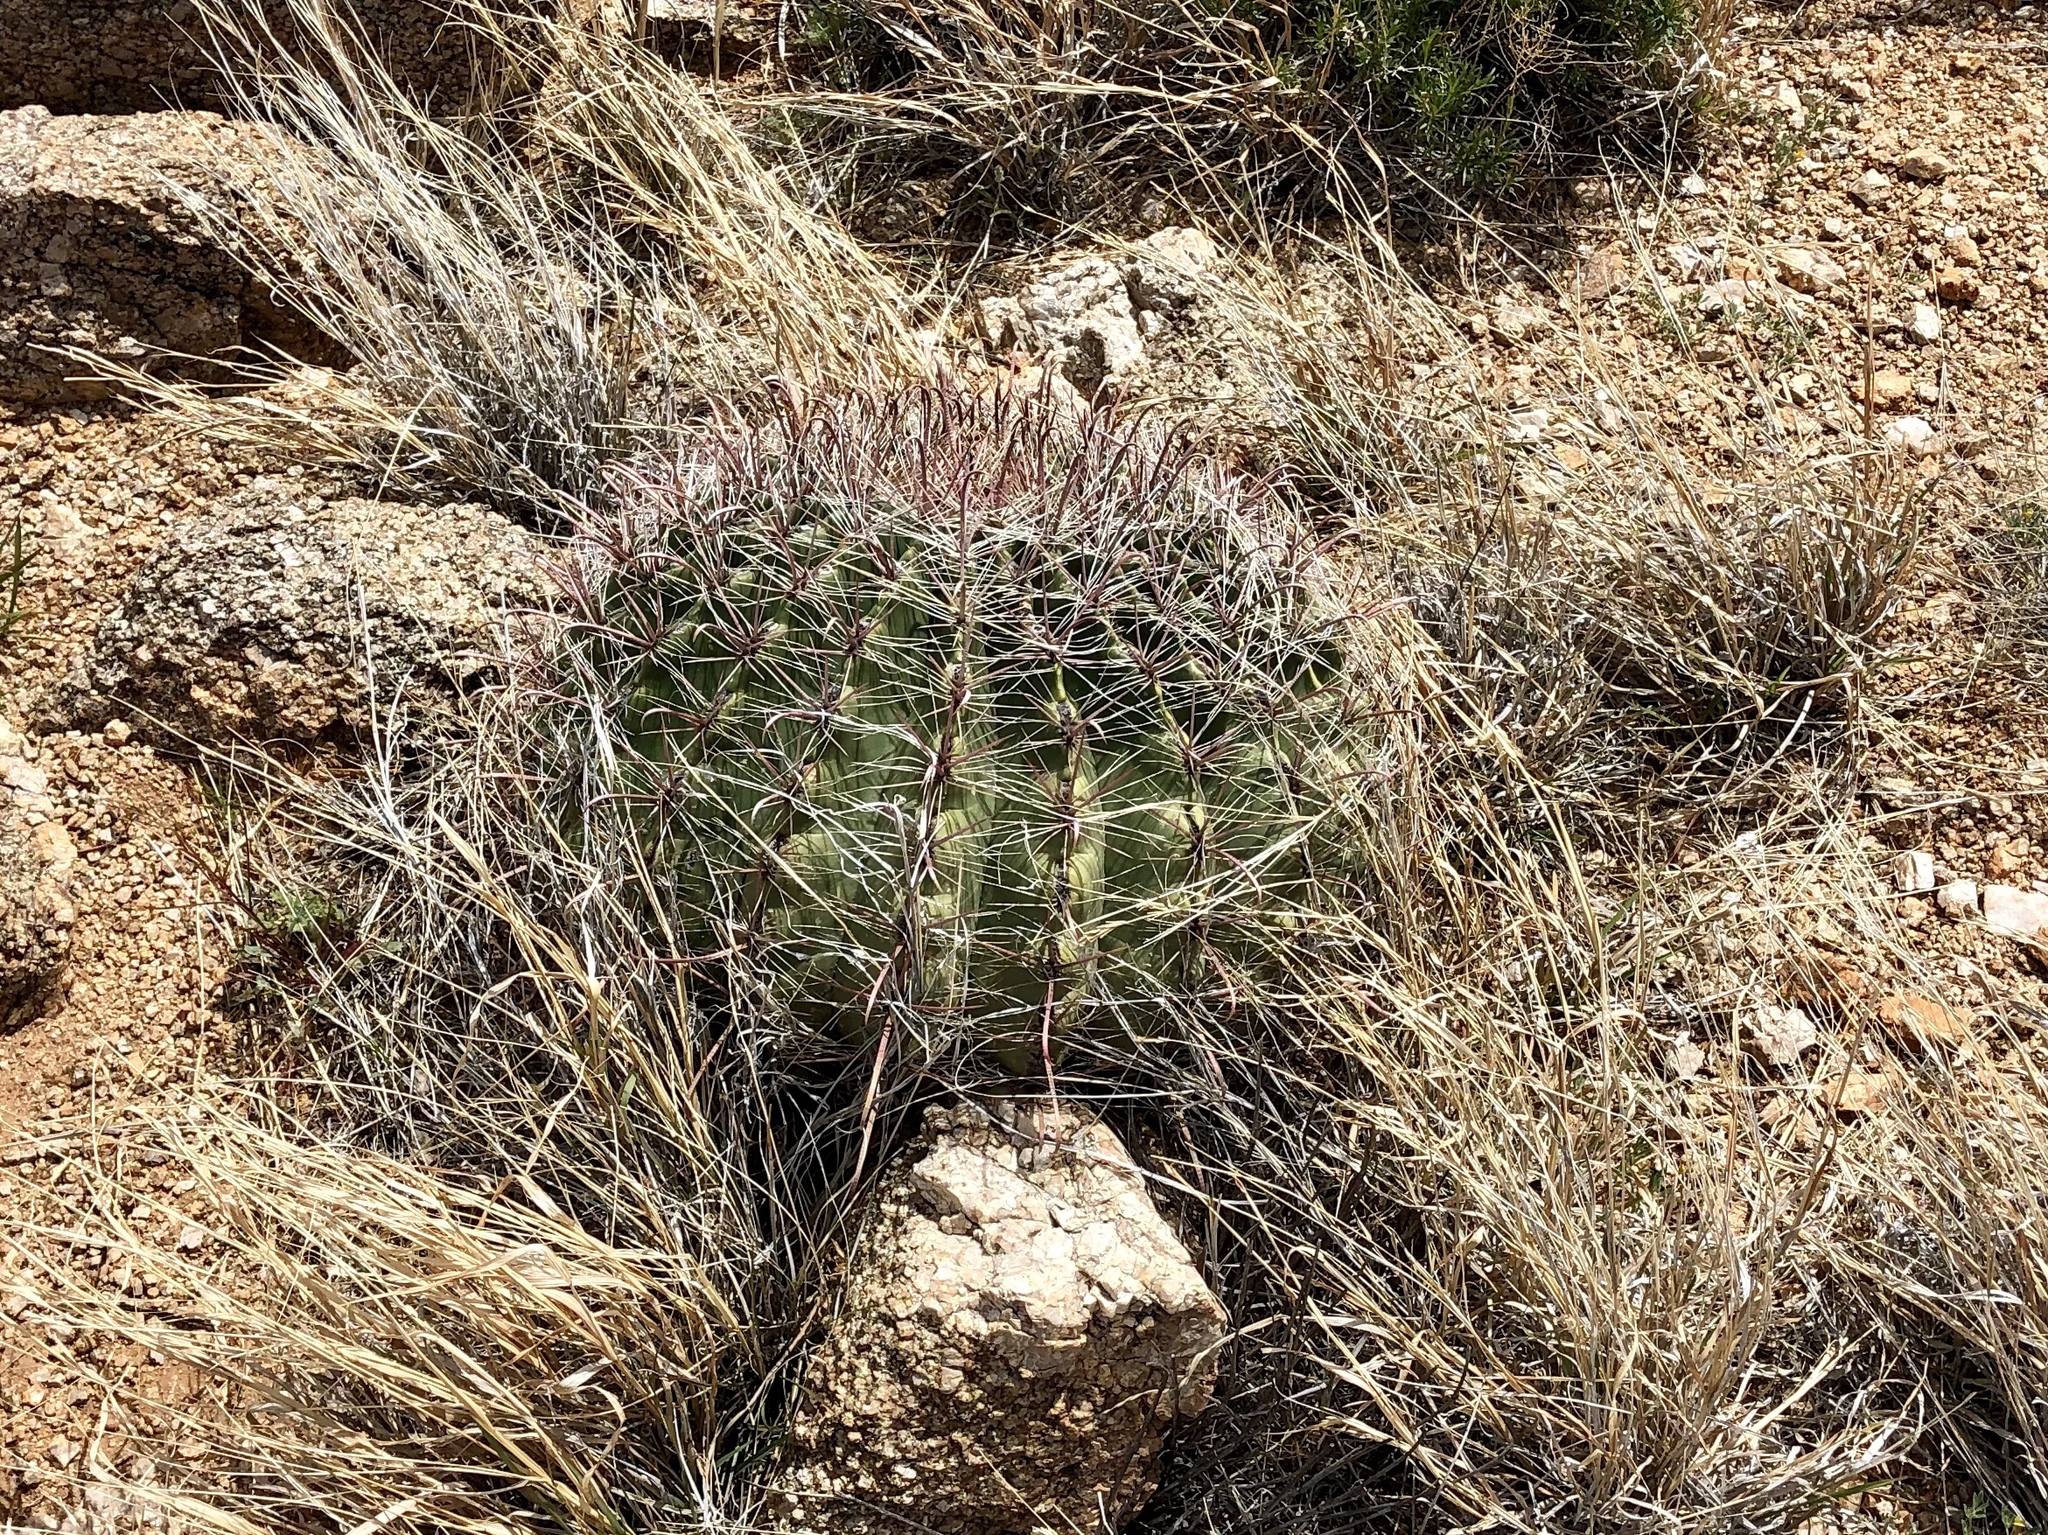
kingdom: Plantae
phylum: Tracheophyta
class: Magnoliopsida
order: Caryophyllales
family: Cactaceae
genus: Ferocactus
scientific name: Ferocactus wislizeni
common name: Candy barrel cactus
